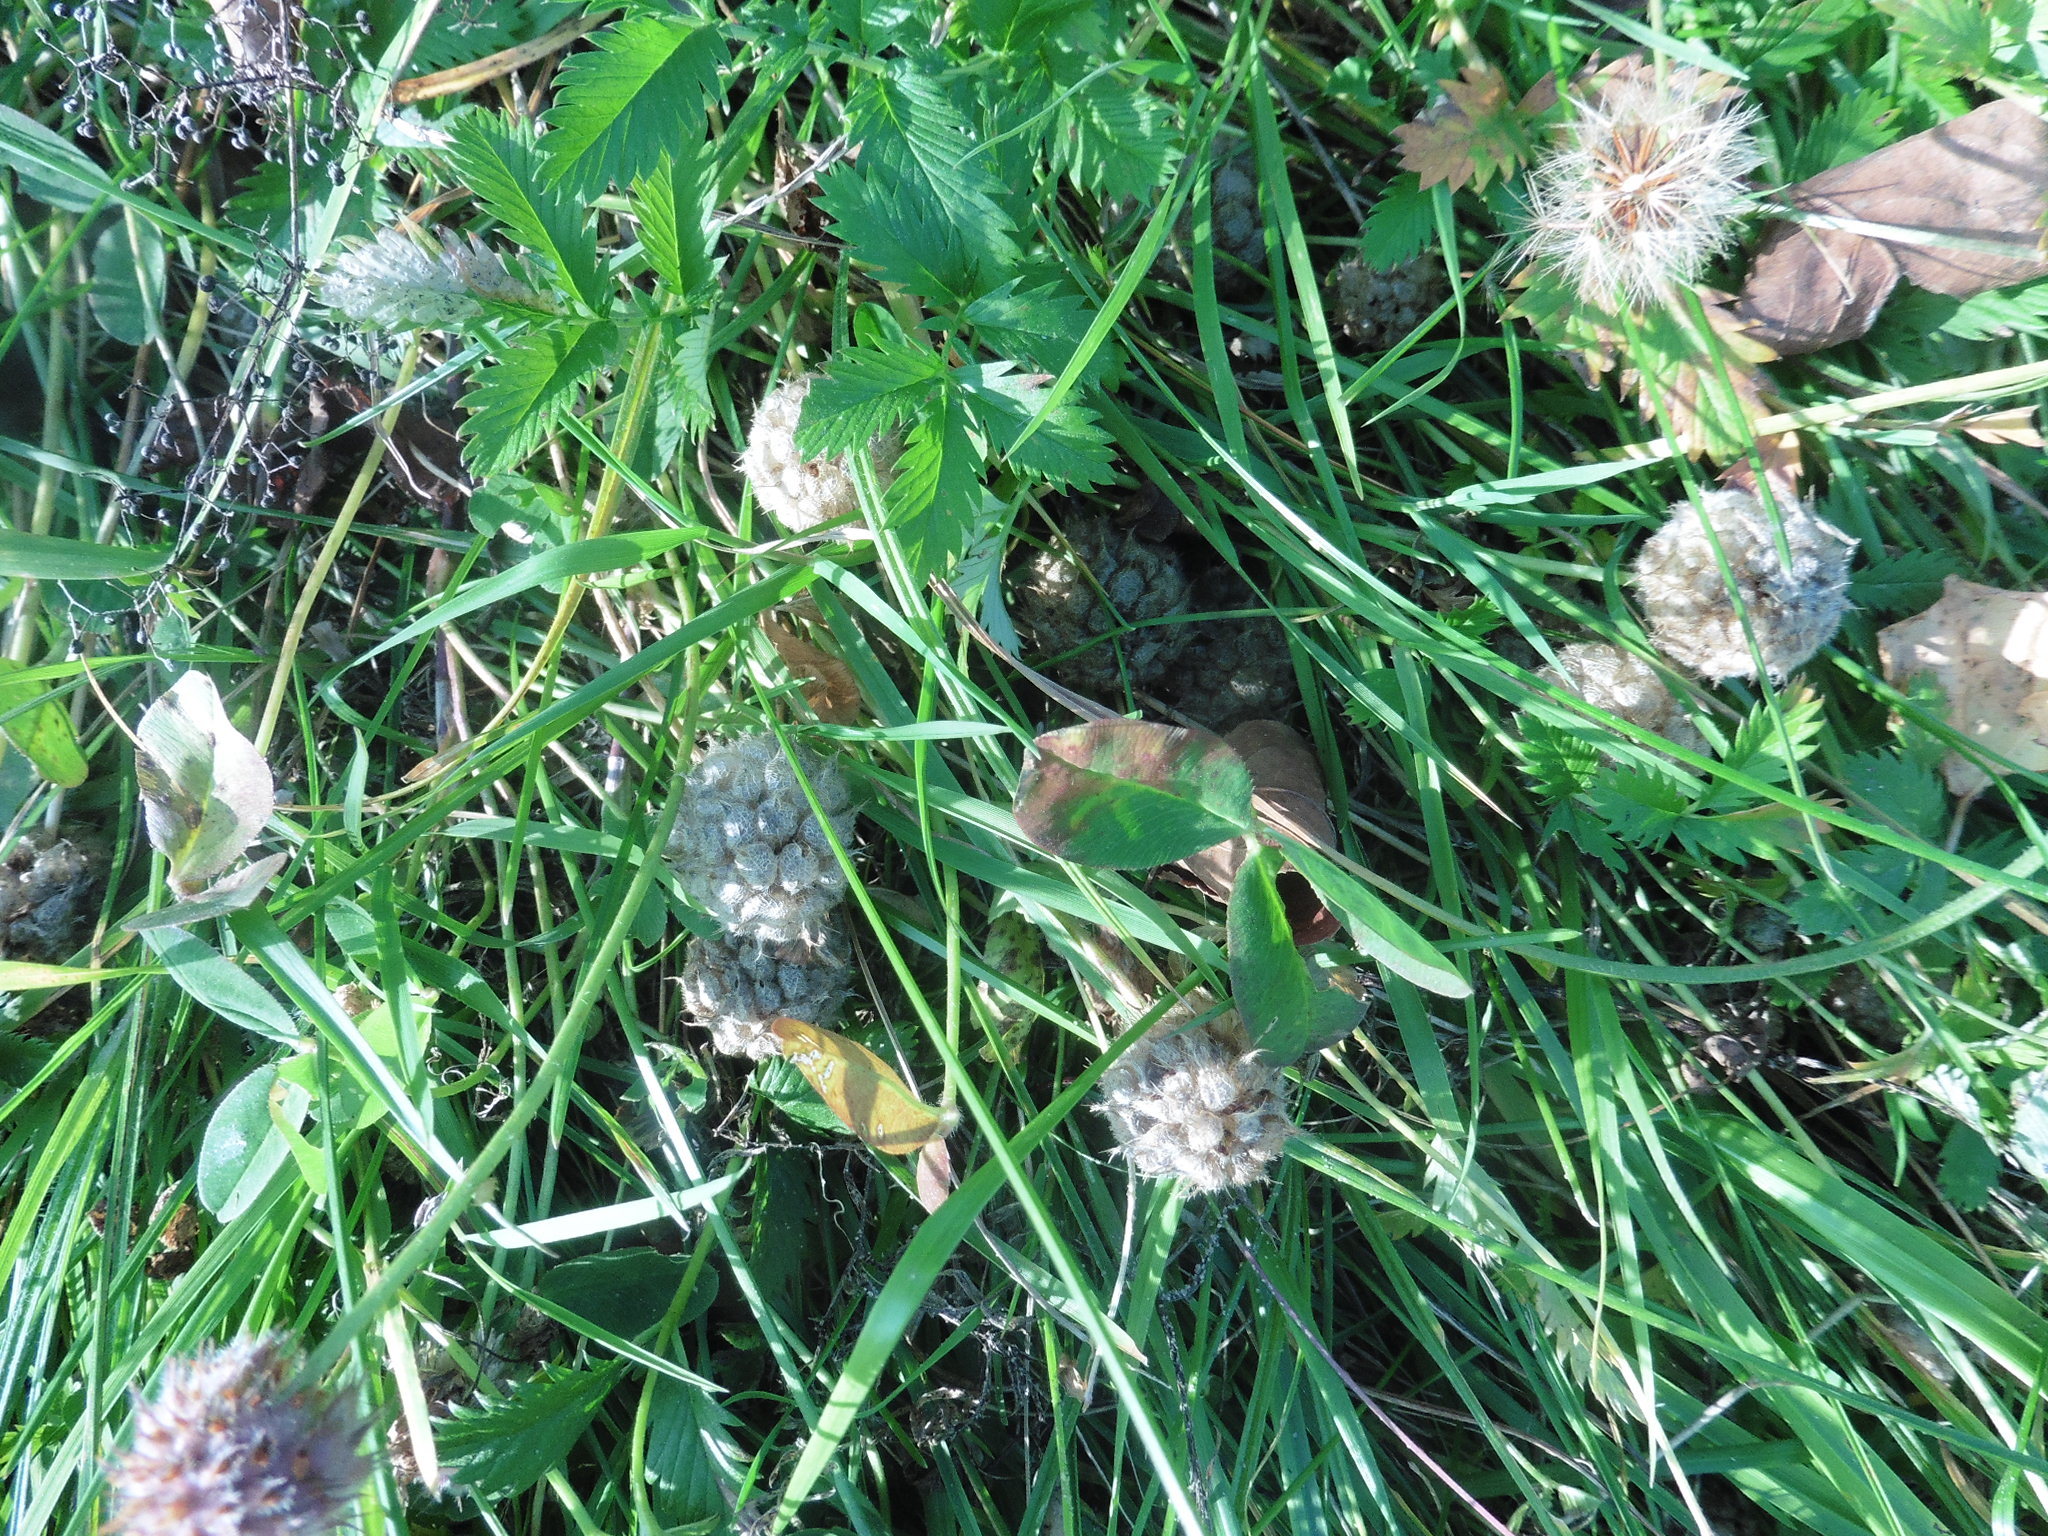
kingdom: Plantae
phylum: Tracheophyta
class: Magnoliopsida
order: Fabales
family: Fabaceae
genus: Trifolium
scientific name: Trifolium fragiferum
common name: Strawberry clover
